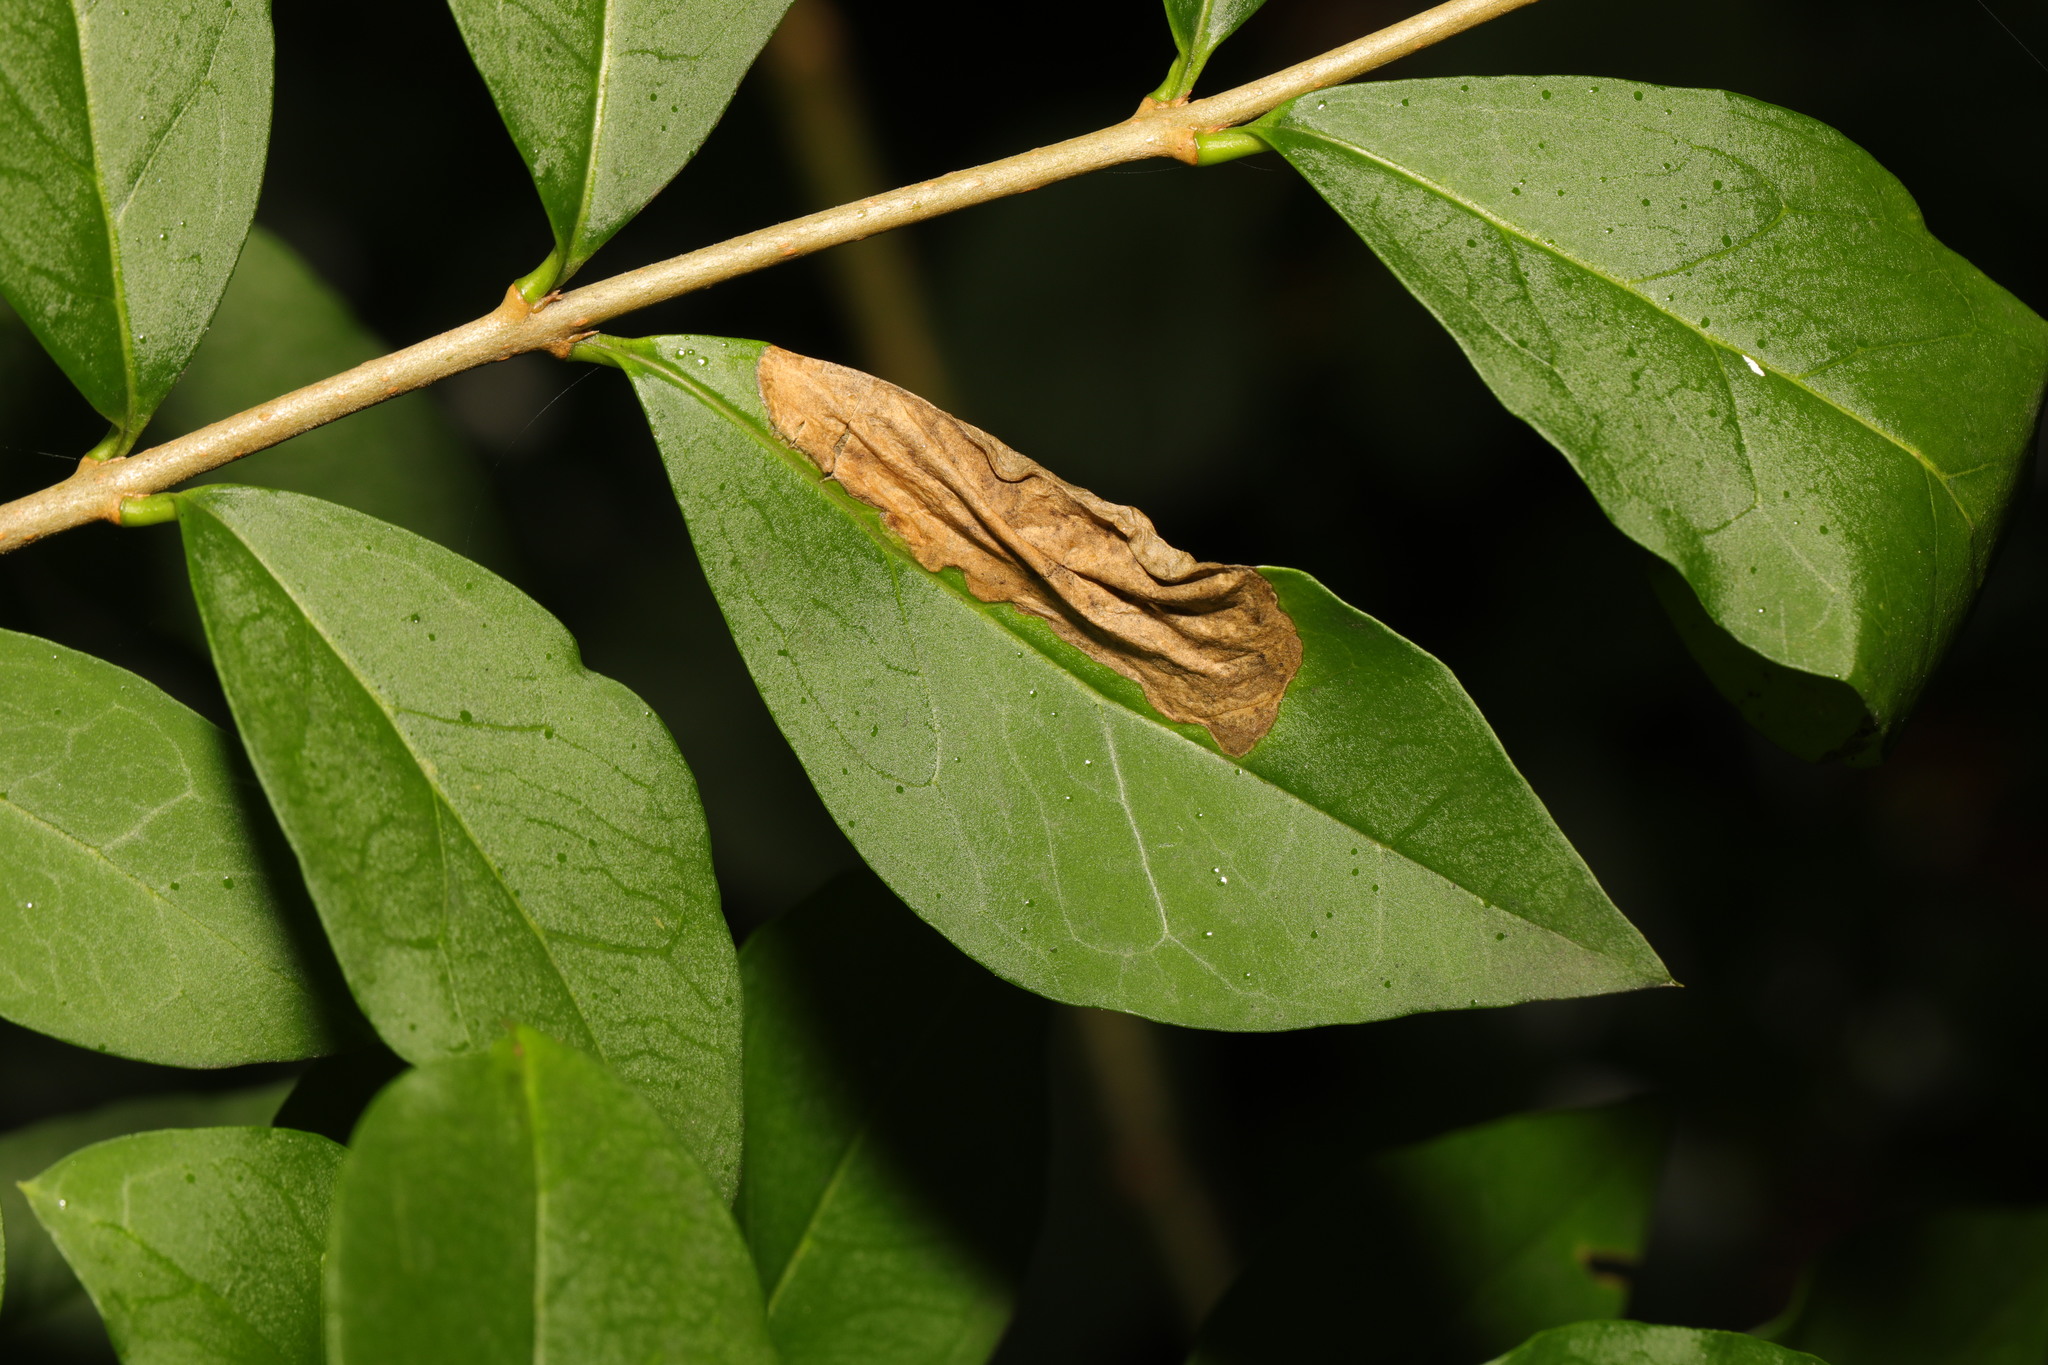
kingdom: Animalia
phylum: Arthropoda
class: Insecta
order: Lepidoptera
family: Gracillariidae
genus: Gracillaria
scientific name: Gracillaria syringella
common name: Common slender
